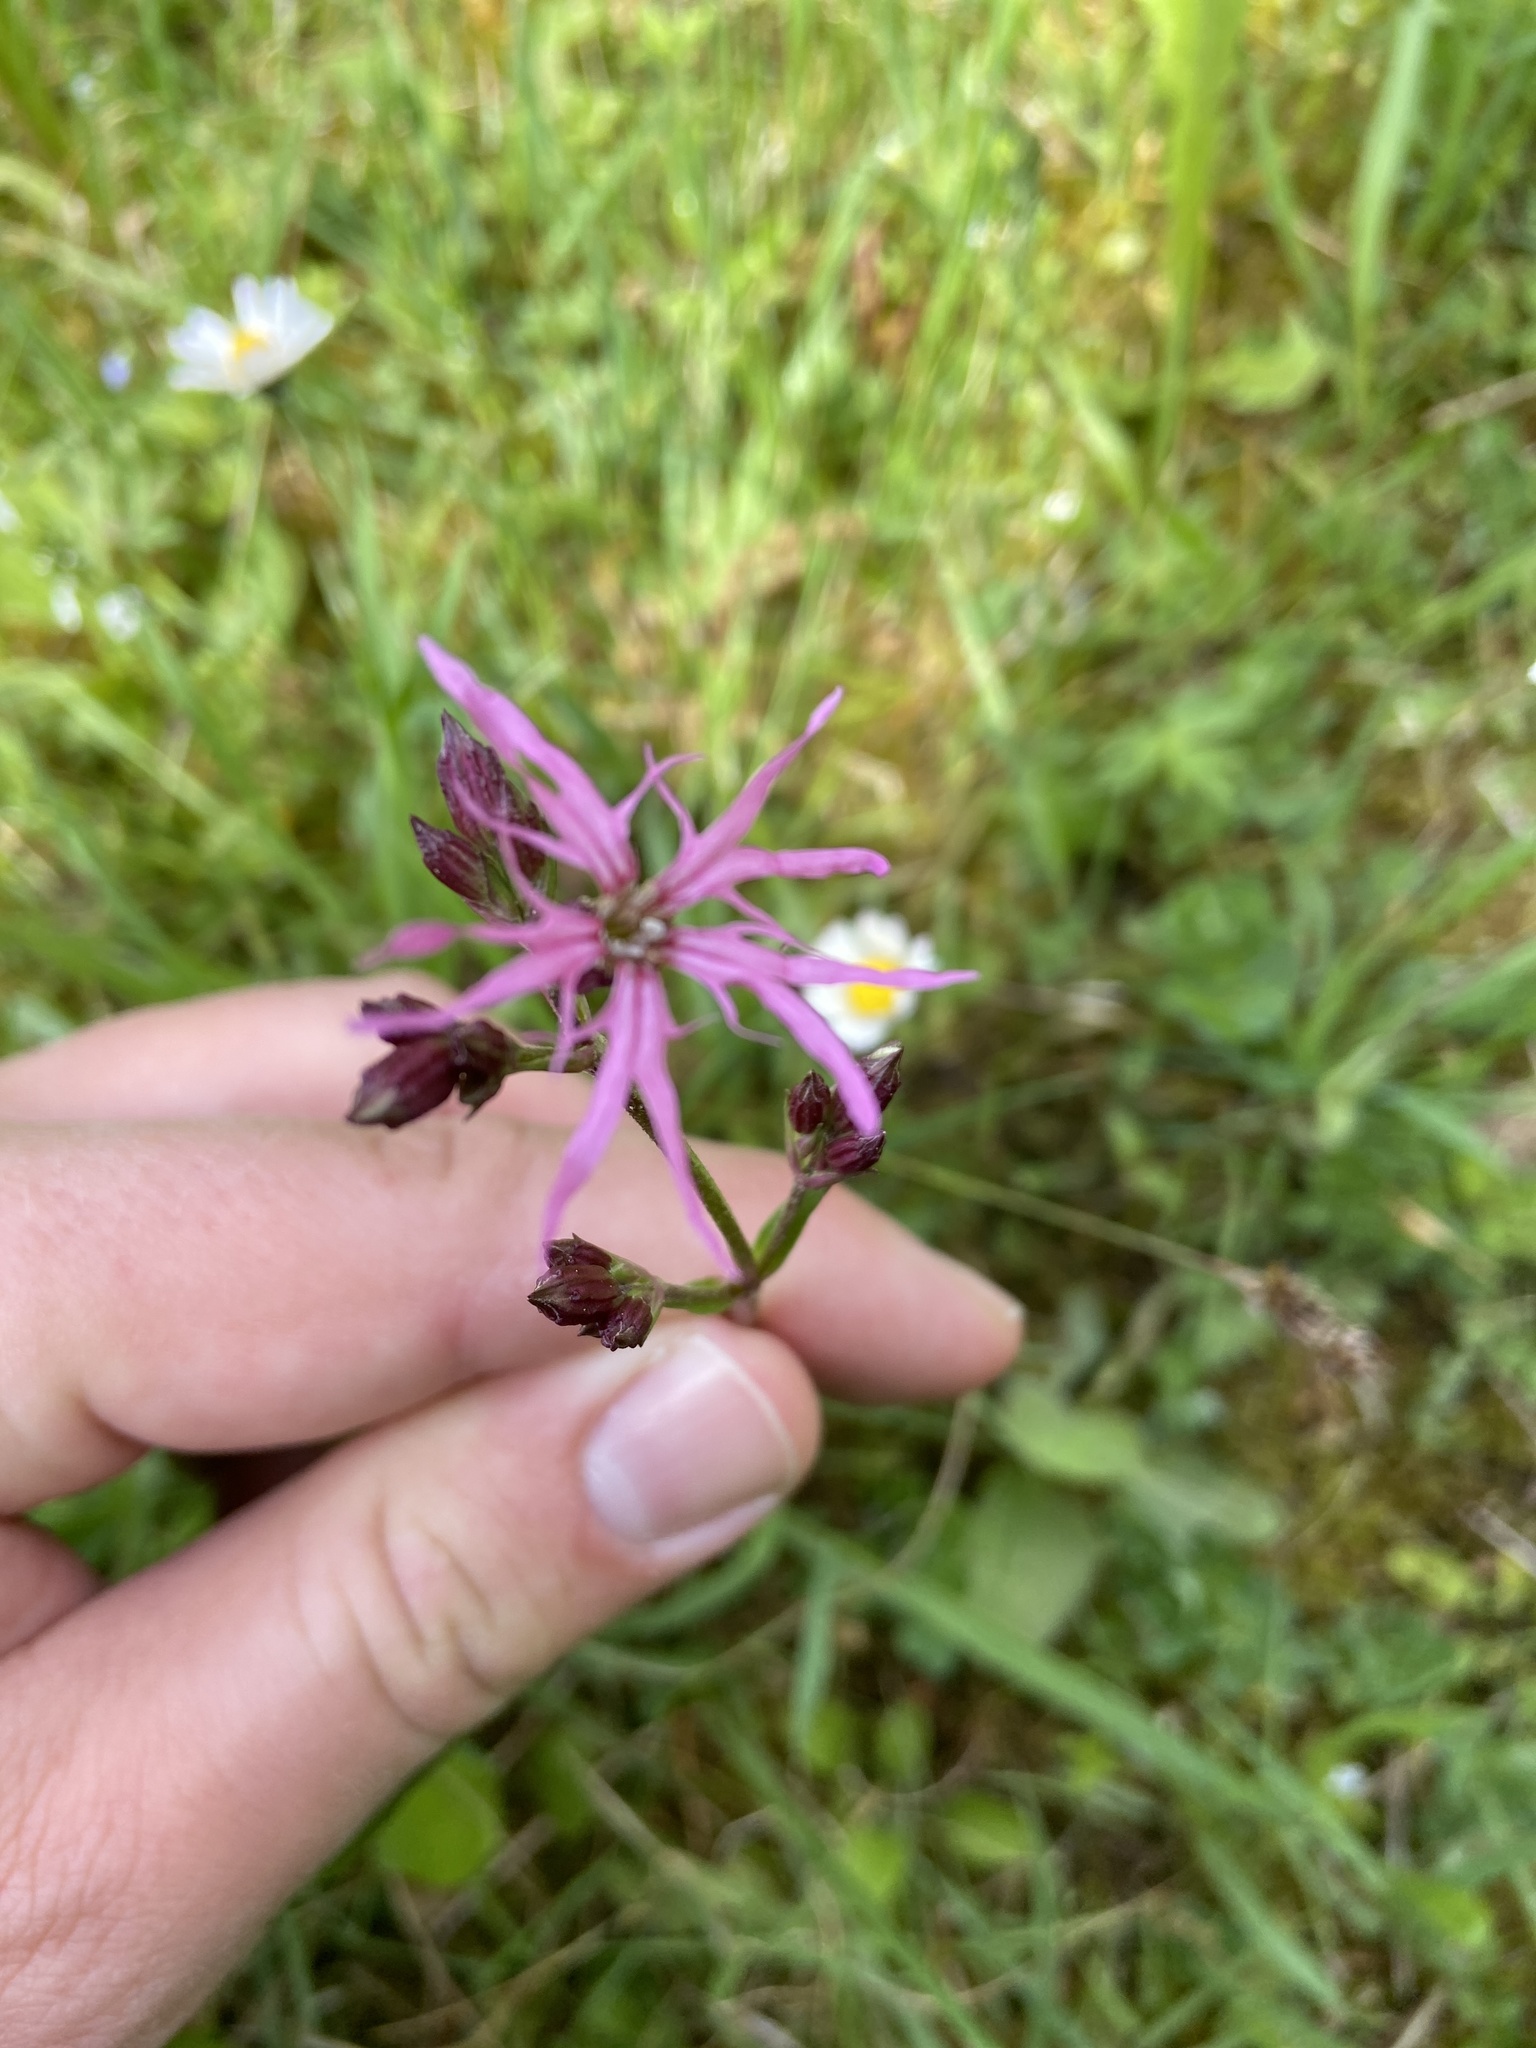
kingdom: Plantae
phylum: Tracheophyta
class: Magnoliopsida
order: Caryophyllales
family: Caryophyllaceae
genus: Silene
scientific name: Silene flos-cuculi
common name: Ragged-robin
